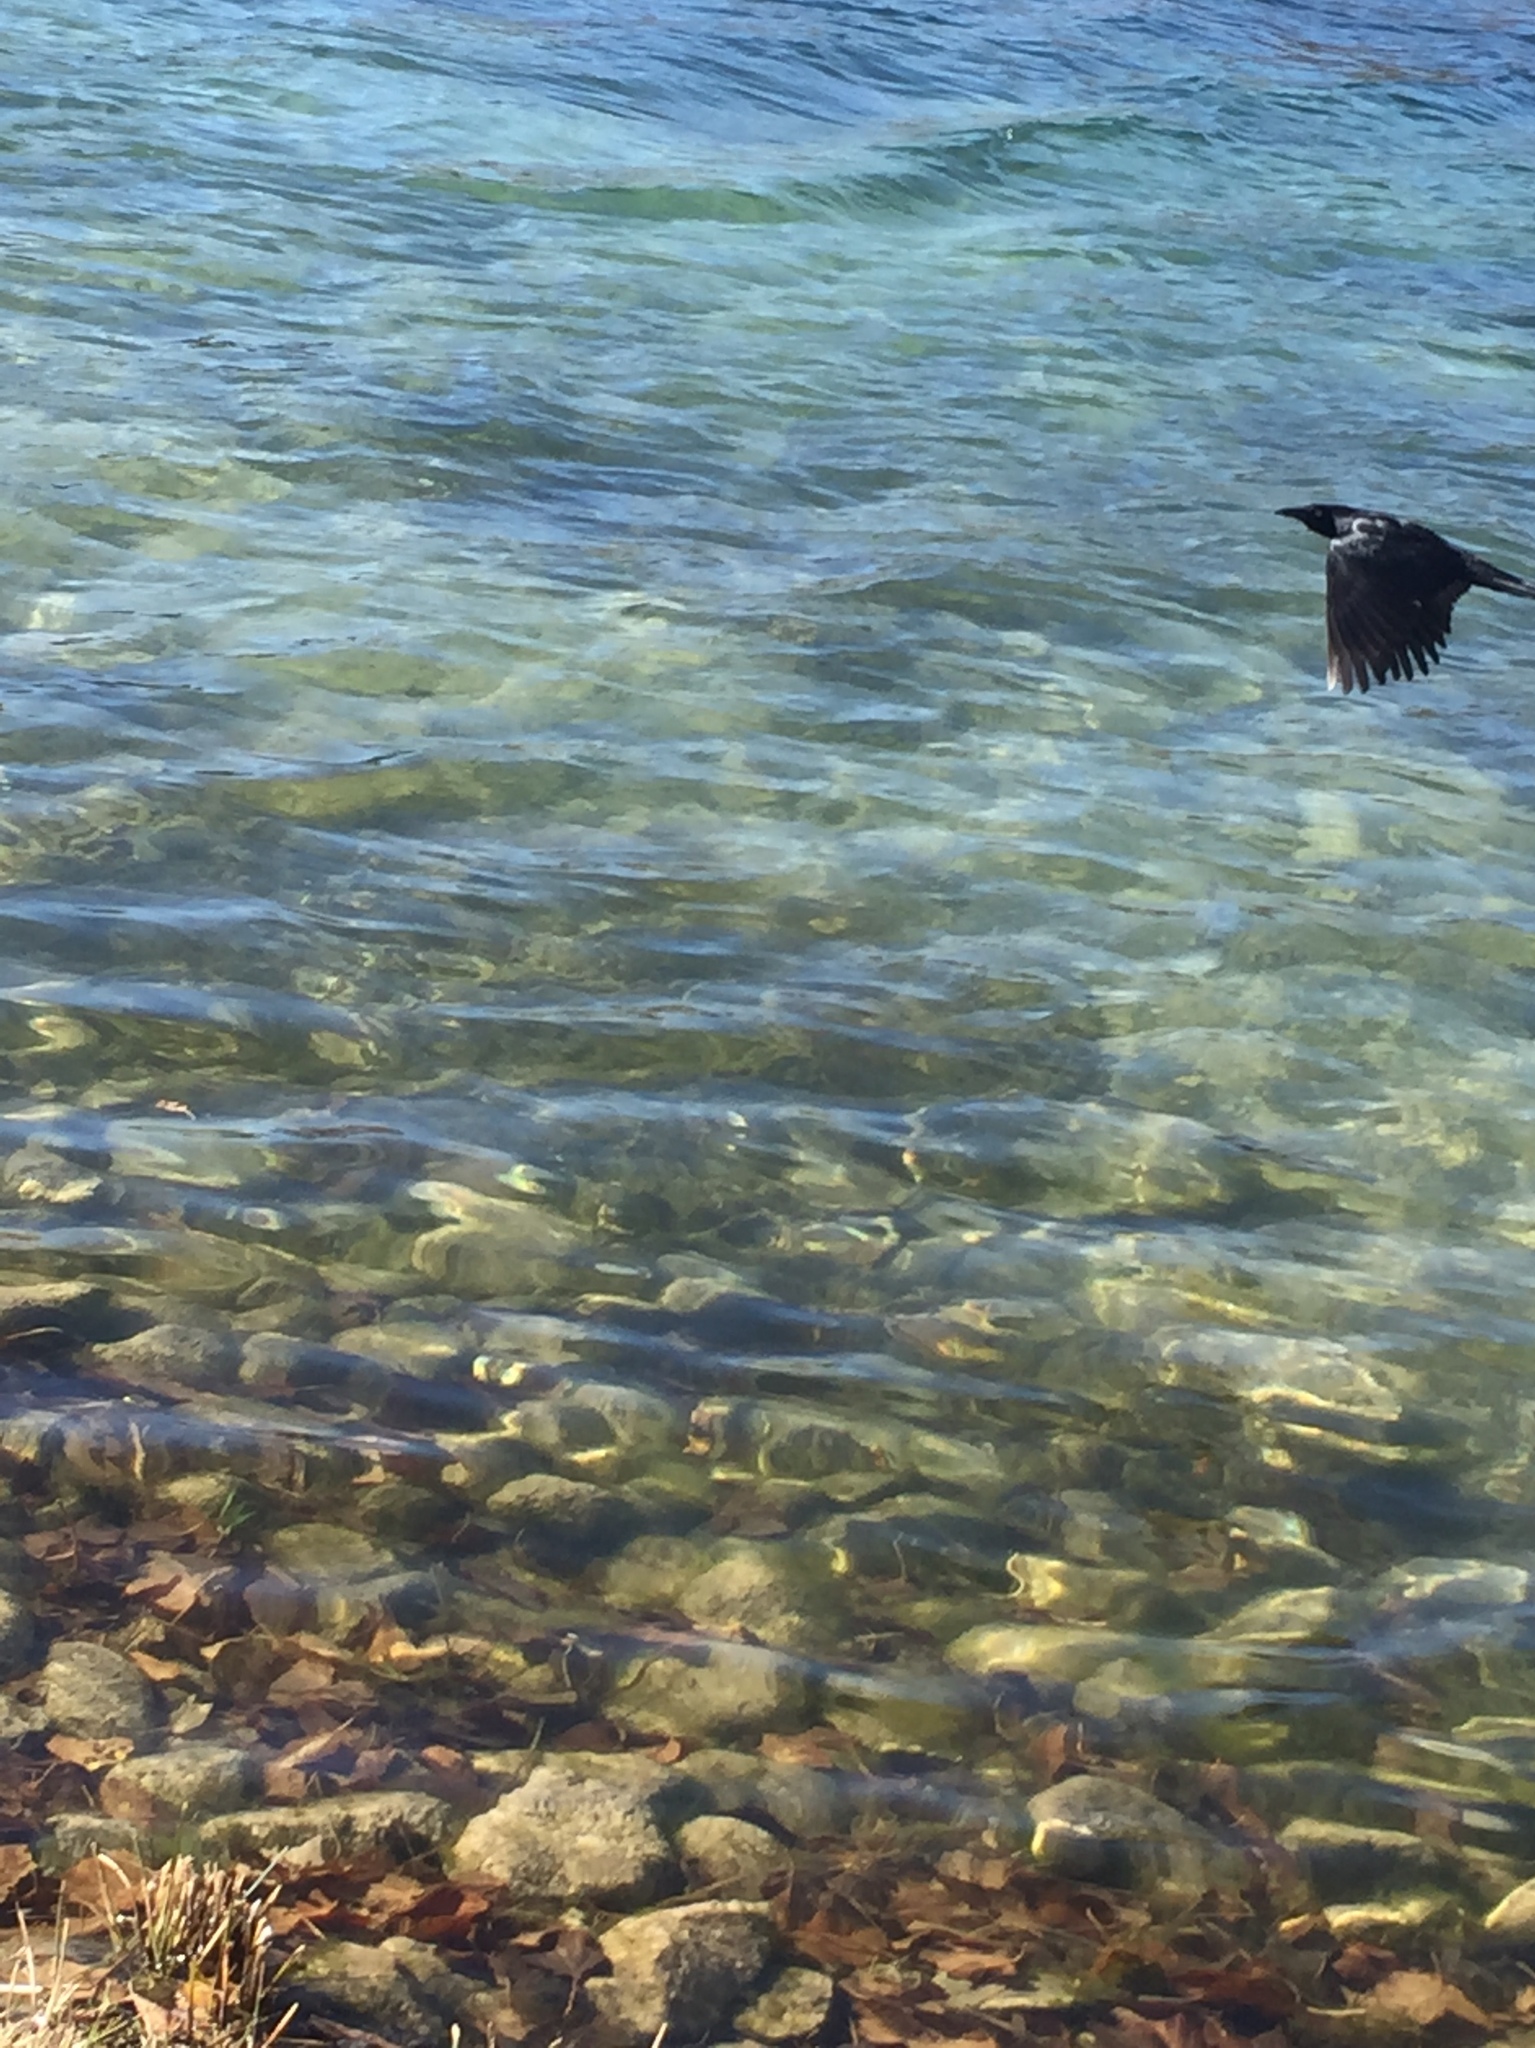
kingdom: Animalia
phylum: Chordata
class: Aves
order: Passeriformes
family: Icteridae
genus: Quiscalus
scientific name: Quiscalus mexicanus
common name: Great-tailed grackle
